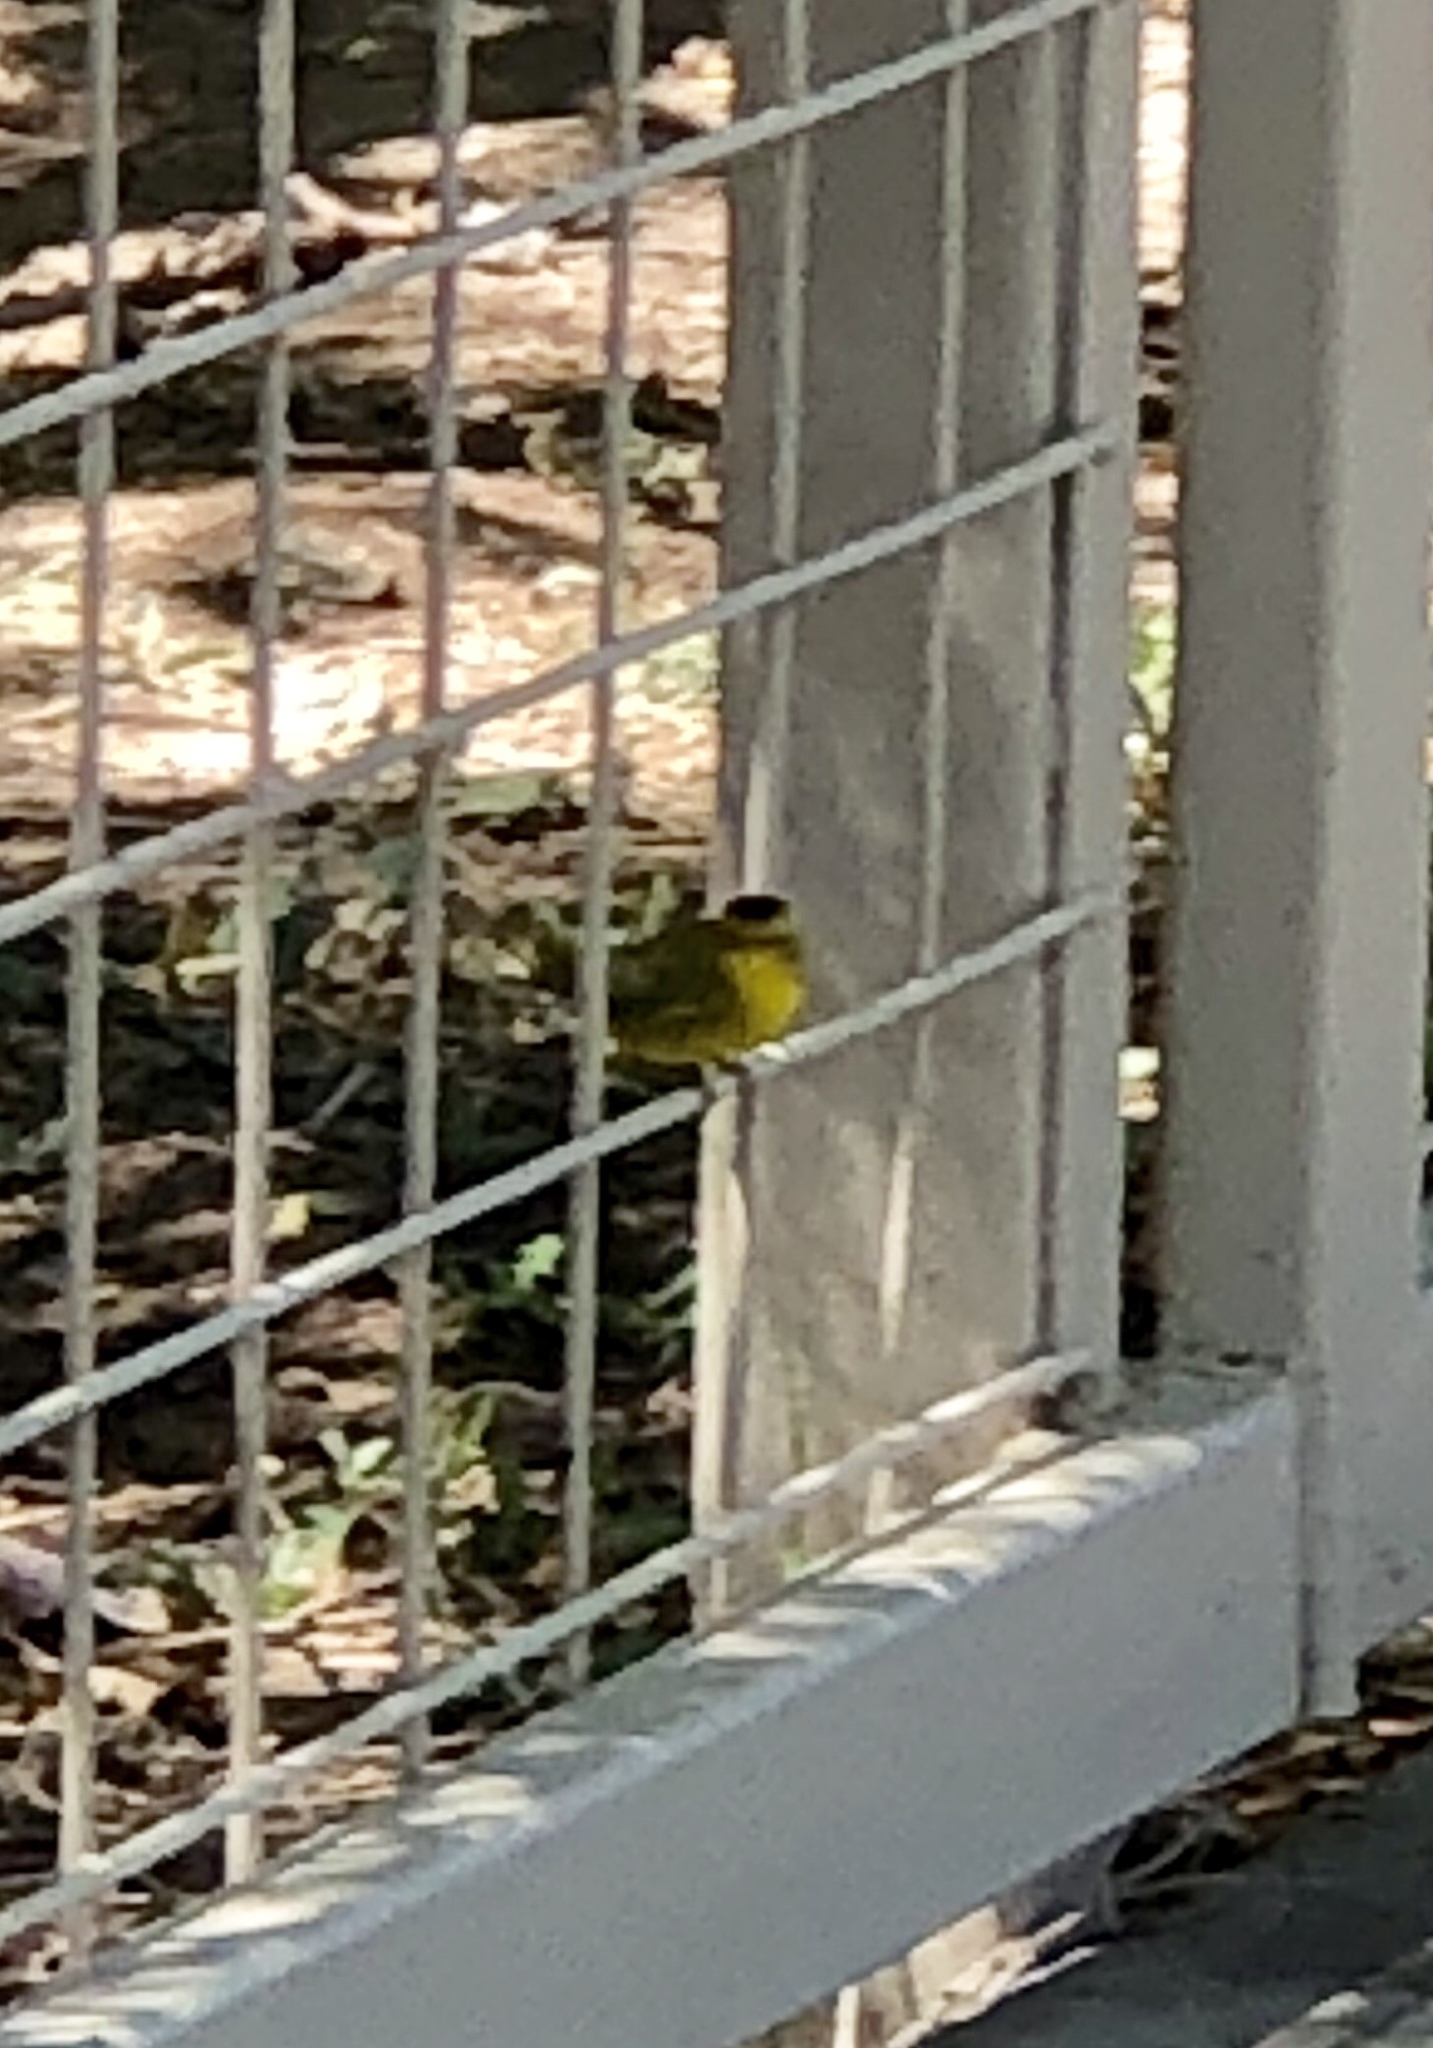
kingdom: Animalia
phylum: Chordata
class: Aves
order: Passeriformes
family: Parulidae
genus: Cardellina
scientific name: Cardellina pusilla
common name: Wilson's warbler
